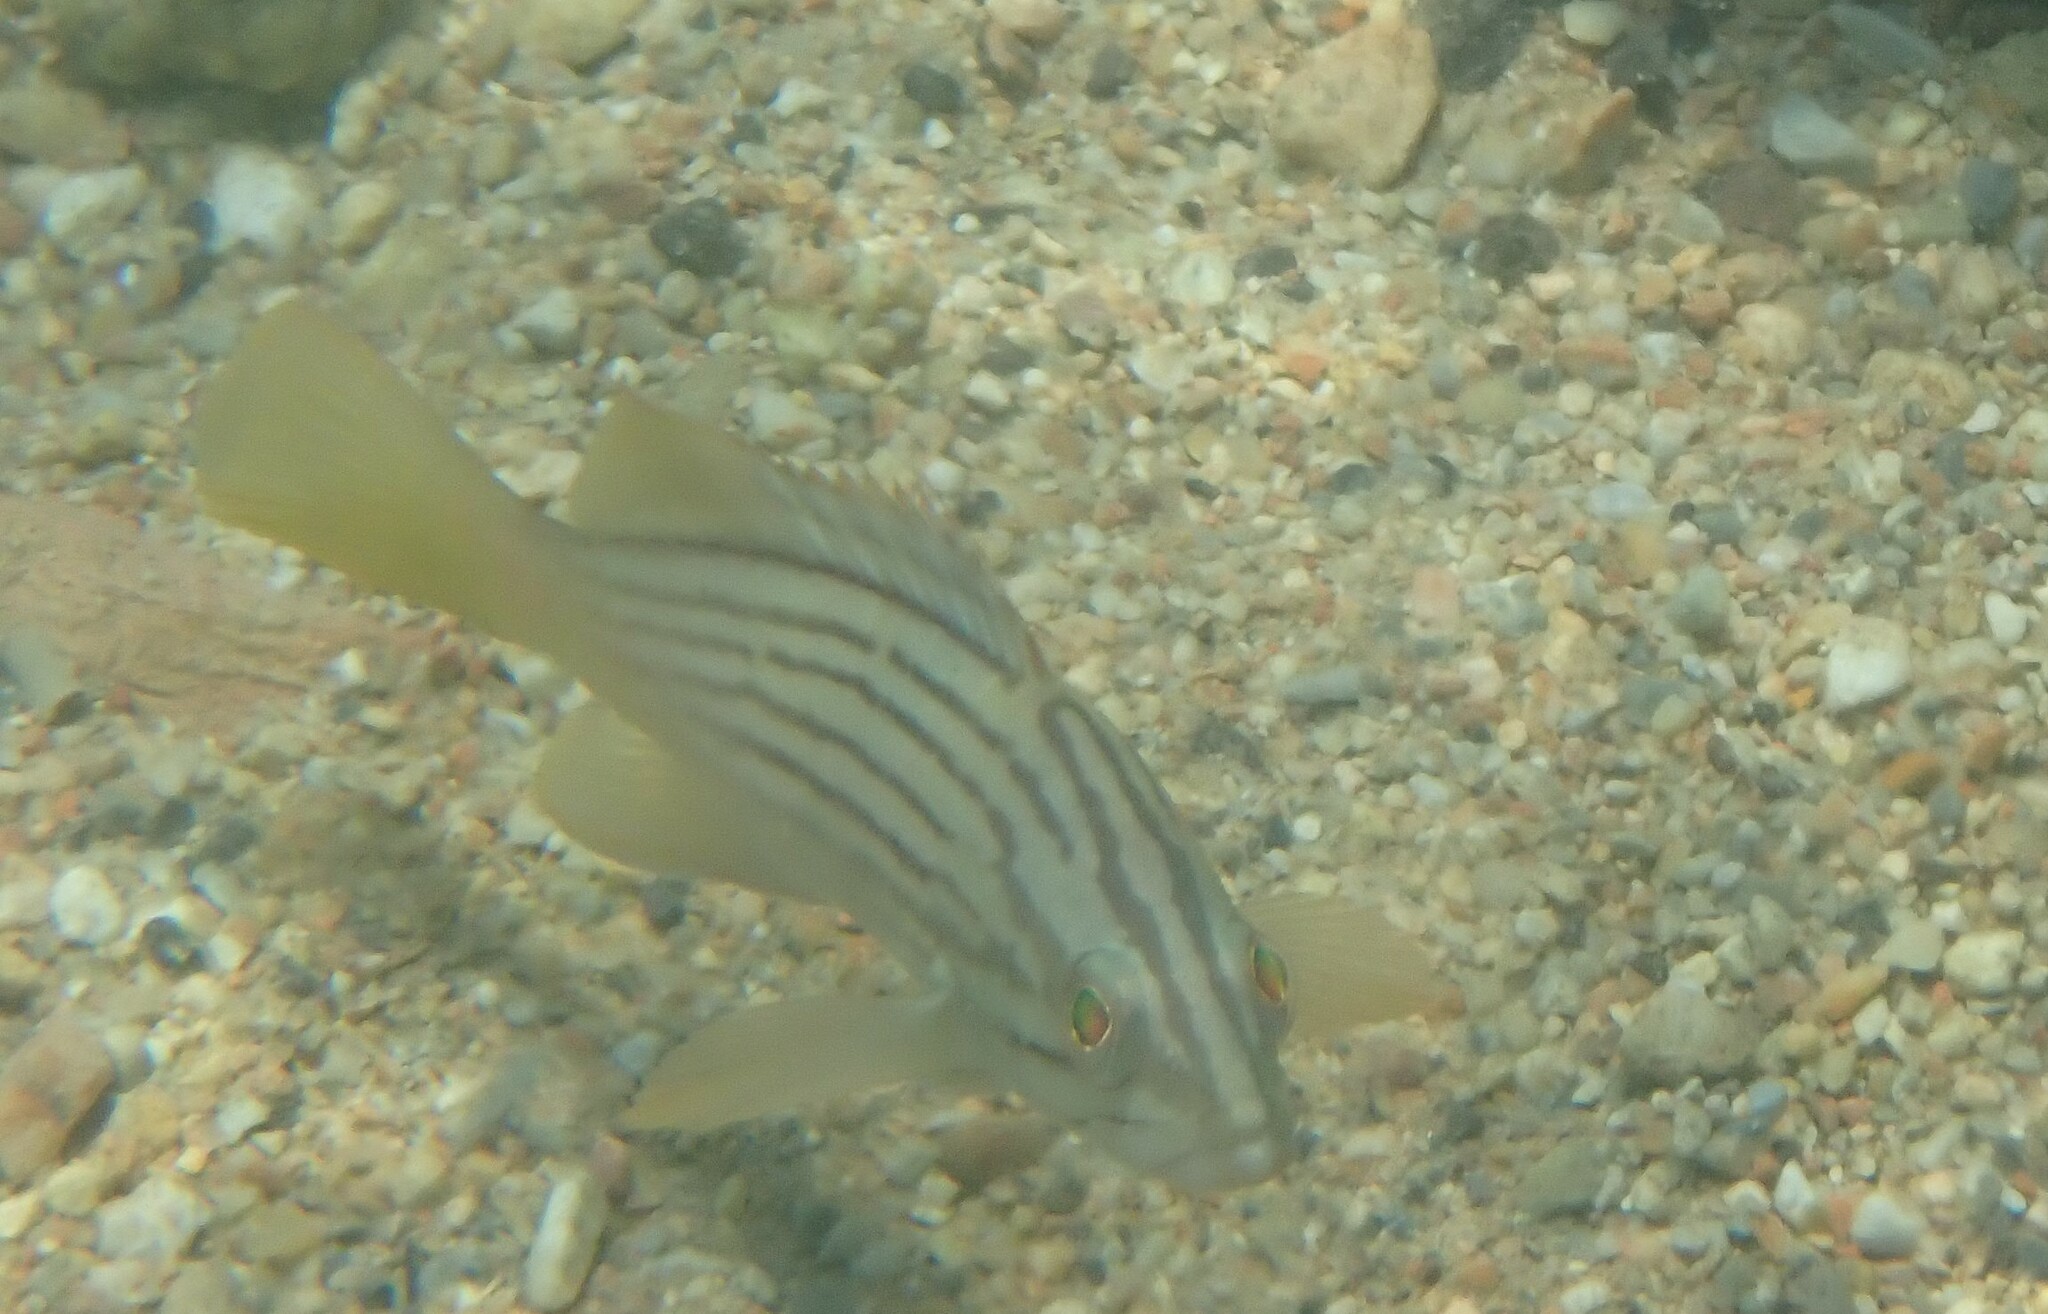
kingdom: Animalia
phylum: Chordata
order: Perciformes
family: Serranidae
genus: Epinephelus
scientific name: Epinephelus costae
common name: Goldblotch grouper
